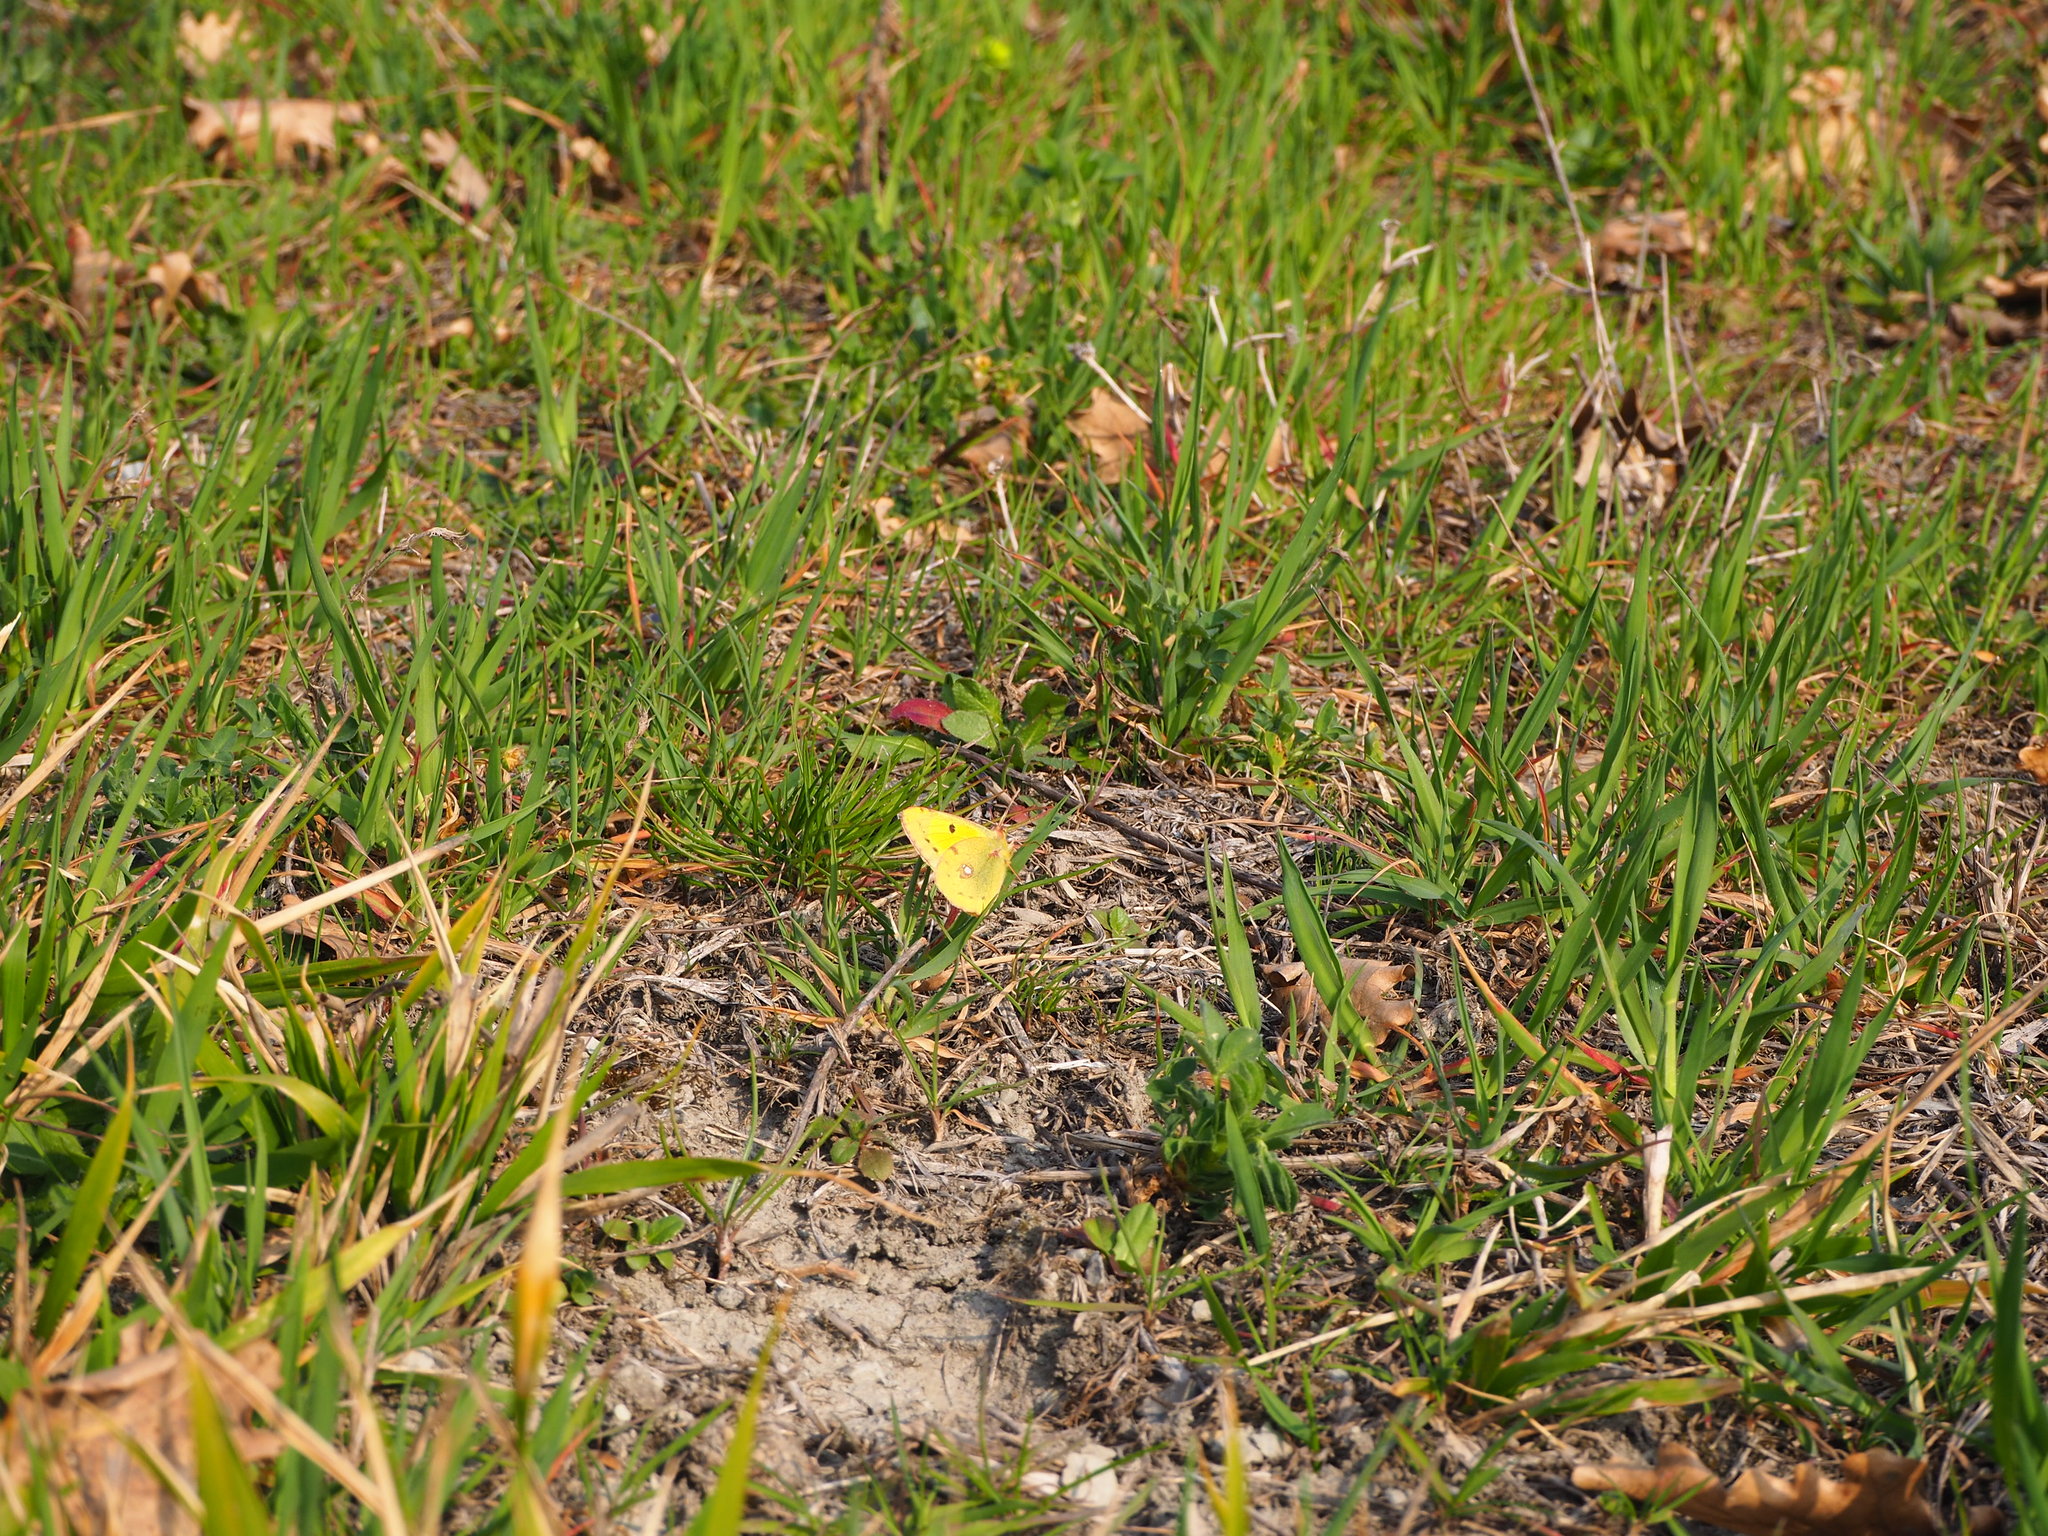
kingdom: Animalia
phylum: Arthropoda
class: Insecta
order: Lepidoptera
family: Pieridae
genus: Colias
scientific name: Colias croceus
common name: Clouded yellow
